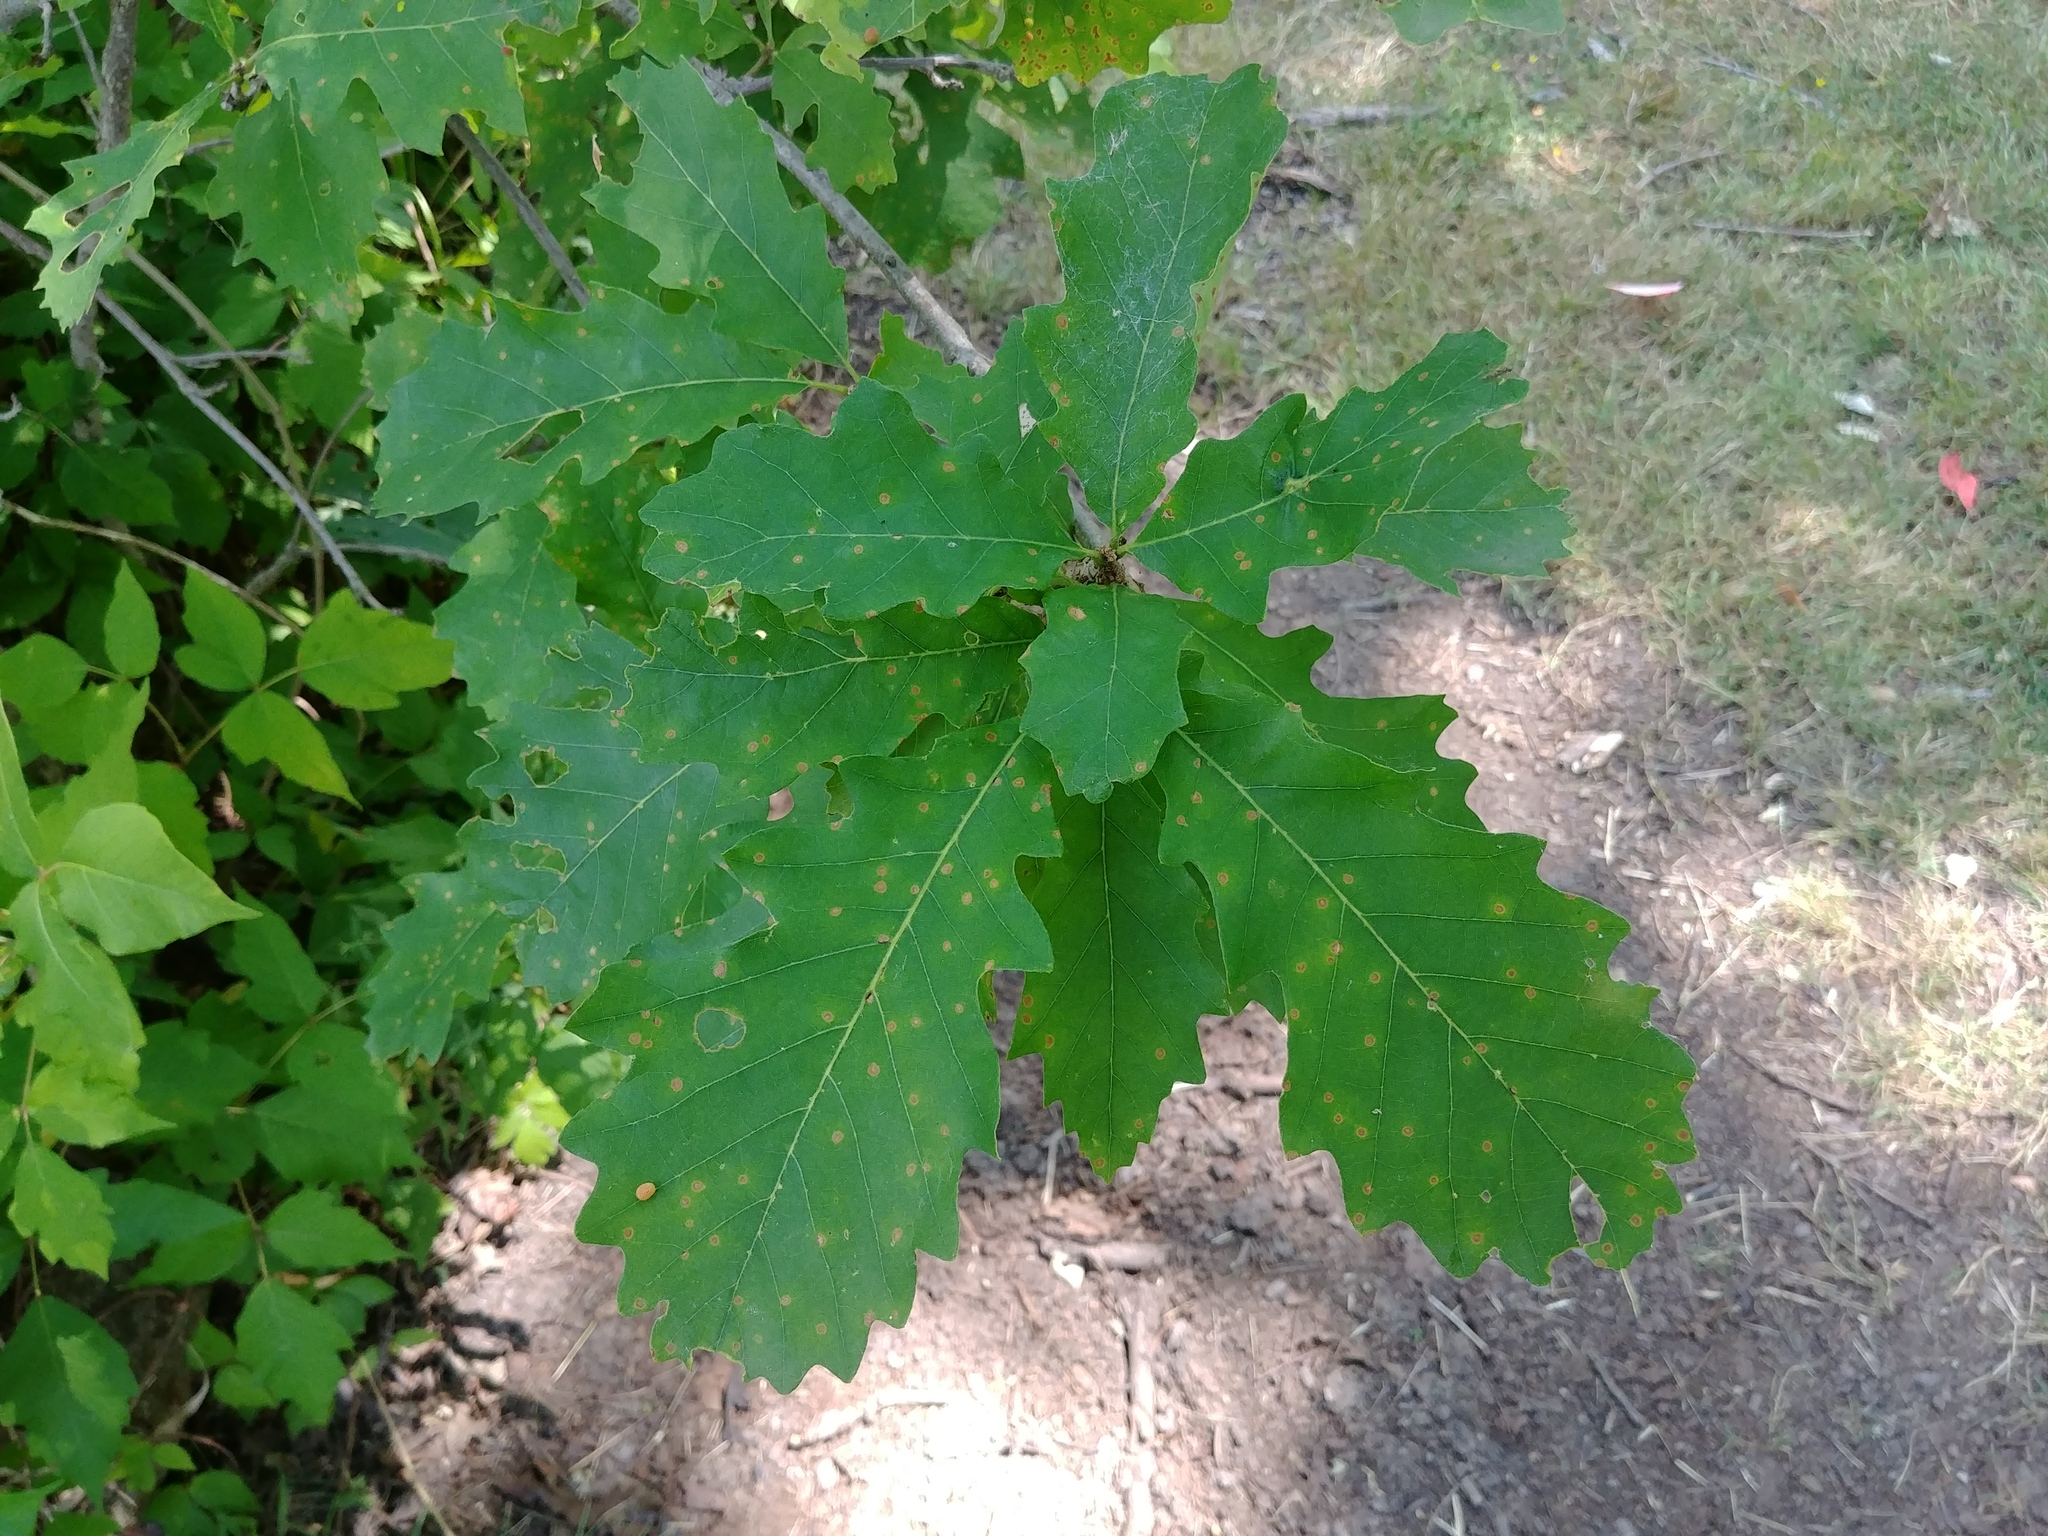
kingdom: Plantae
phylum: Tracheophyta
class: Magnoliopsida
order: Fagales
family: Fagaceae
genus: Quercus
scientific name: Quercus macrocarpa
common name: Bur oak
